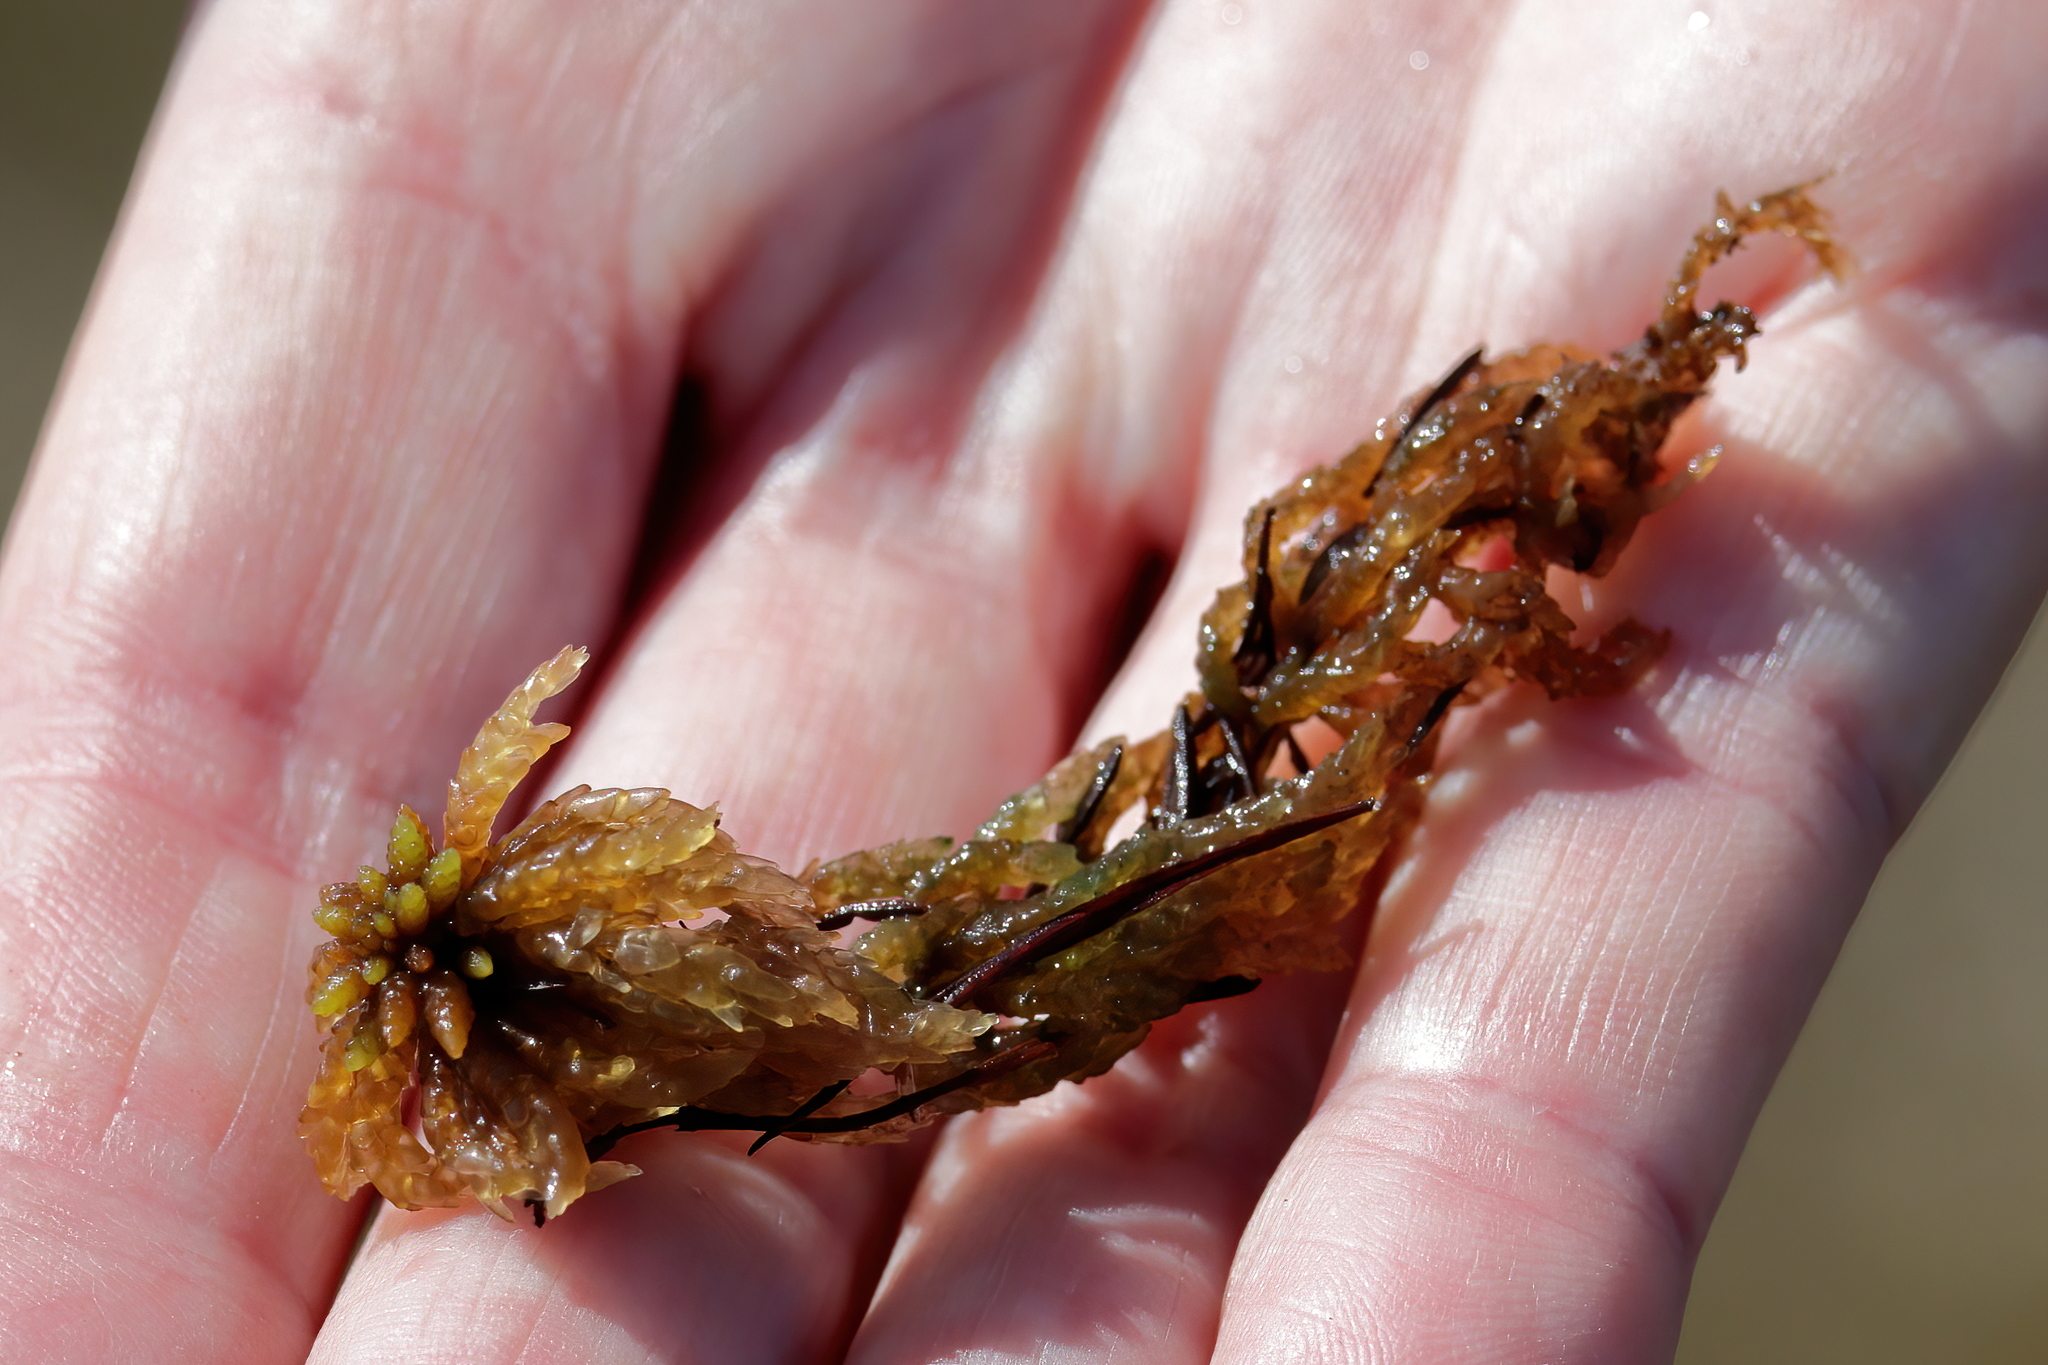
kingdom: Plantae
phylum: Bryophyta
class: Sphagnopsida
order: Sphagnales
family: Sphagnaceae
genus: Sphagnum
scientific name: Sphagnum portoricense
